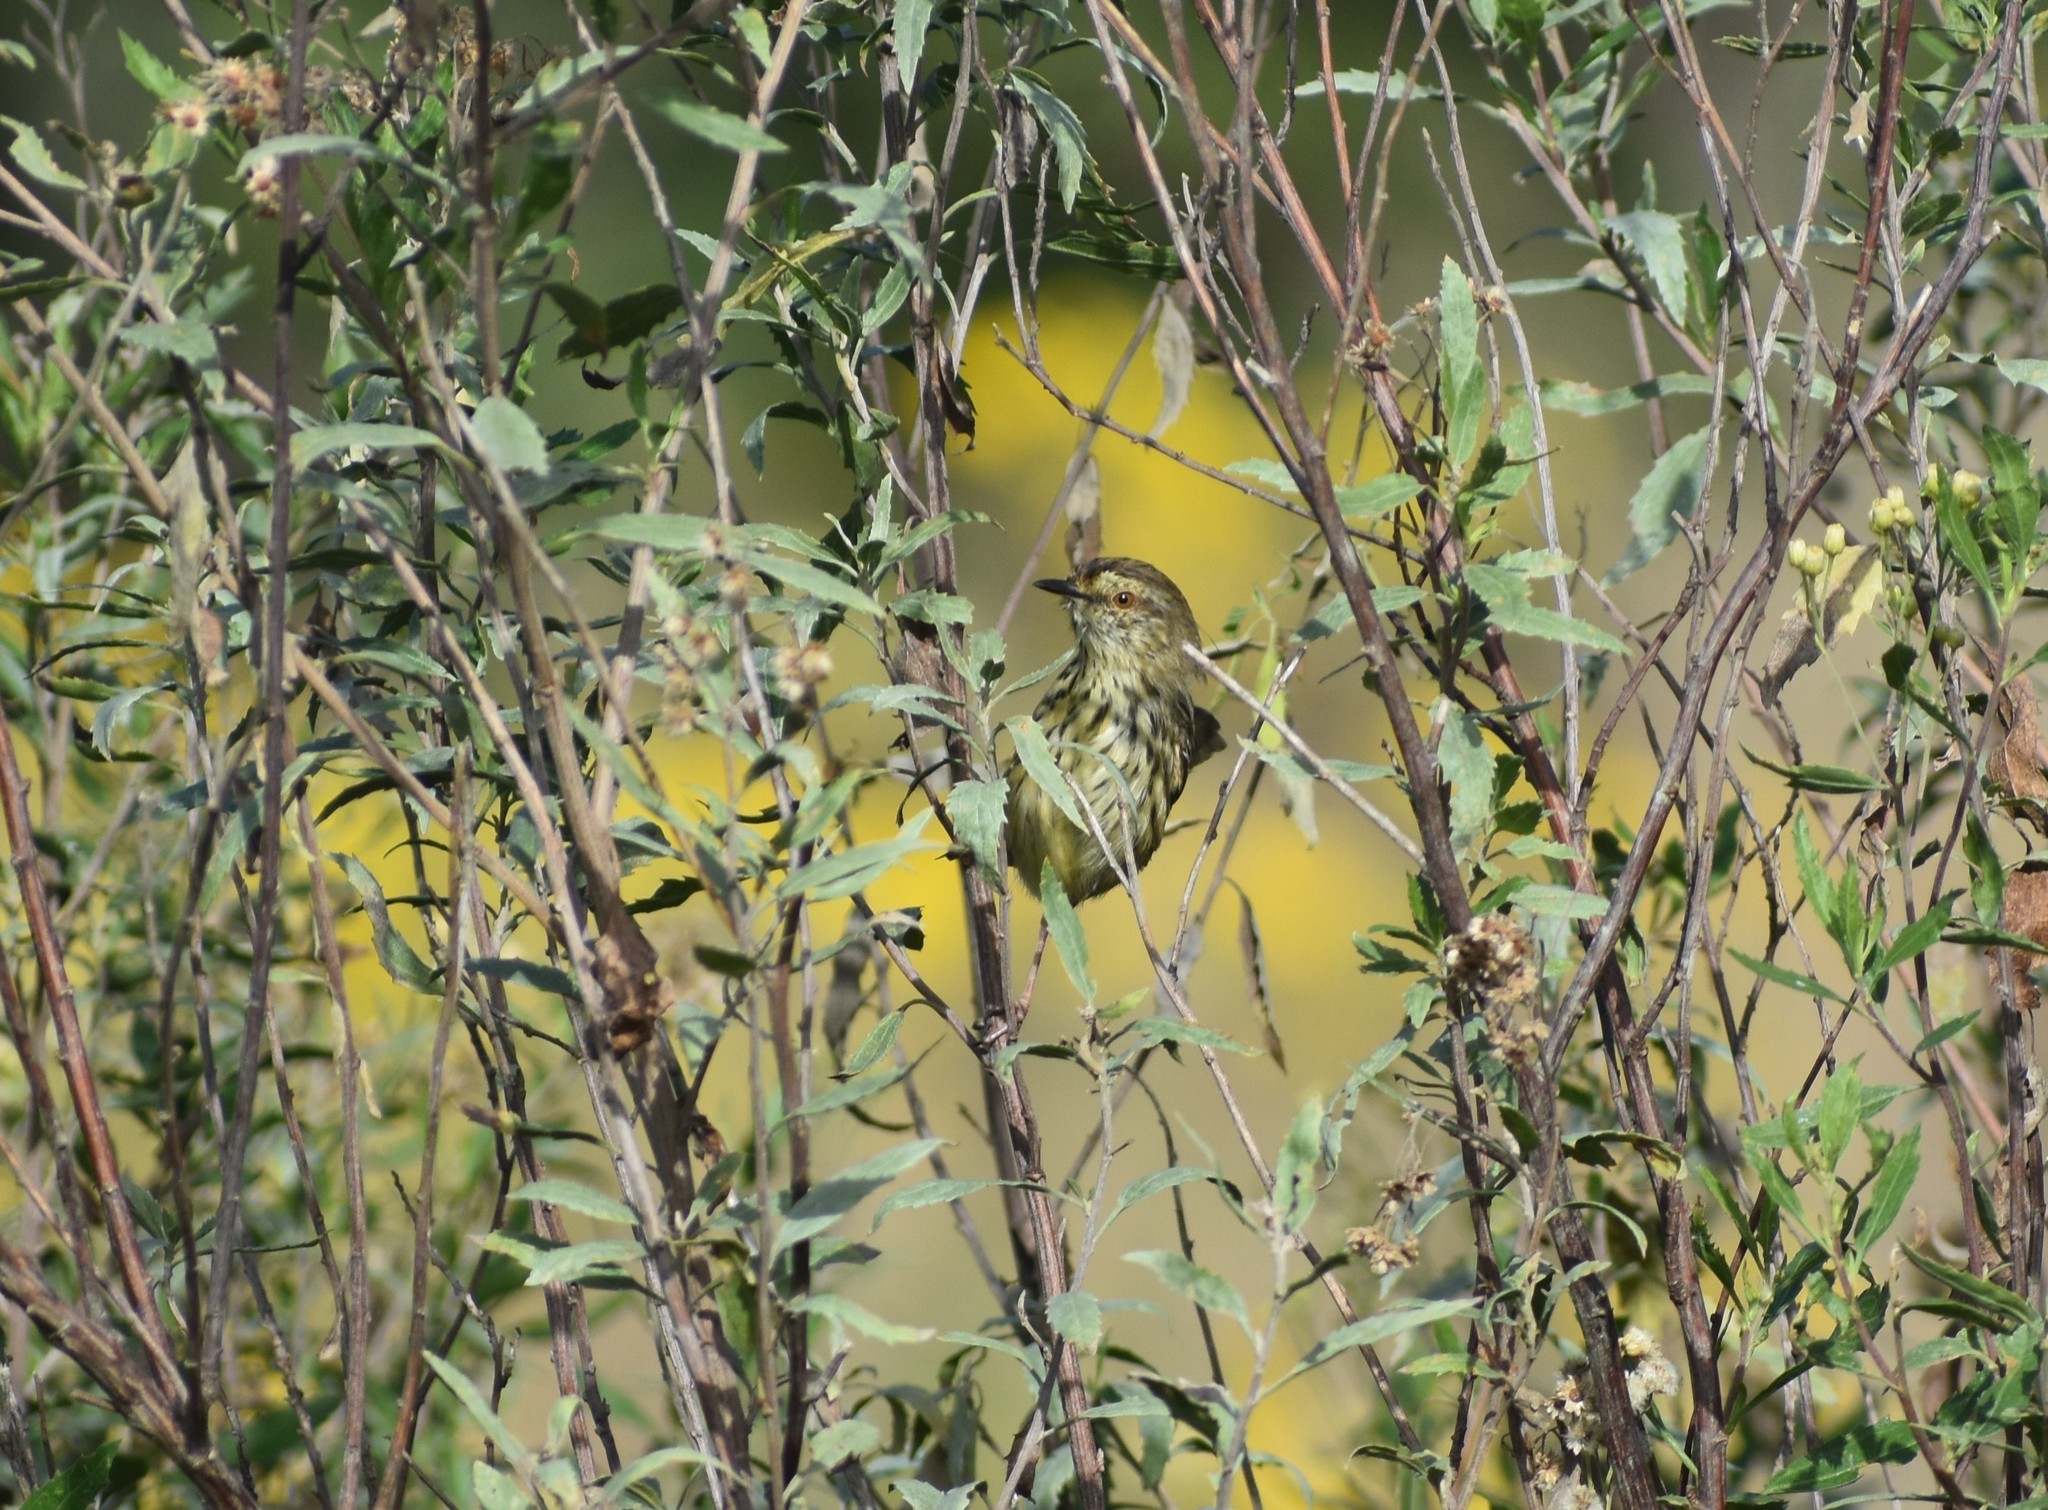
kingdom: Animalia
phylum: Chordata
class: Aves
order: Passeriformes
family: Cisticolidae
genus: Prinia
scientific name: Prinia maculosa
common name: Karoo prinia
